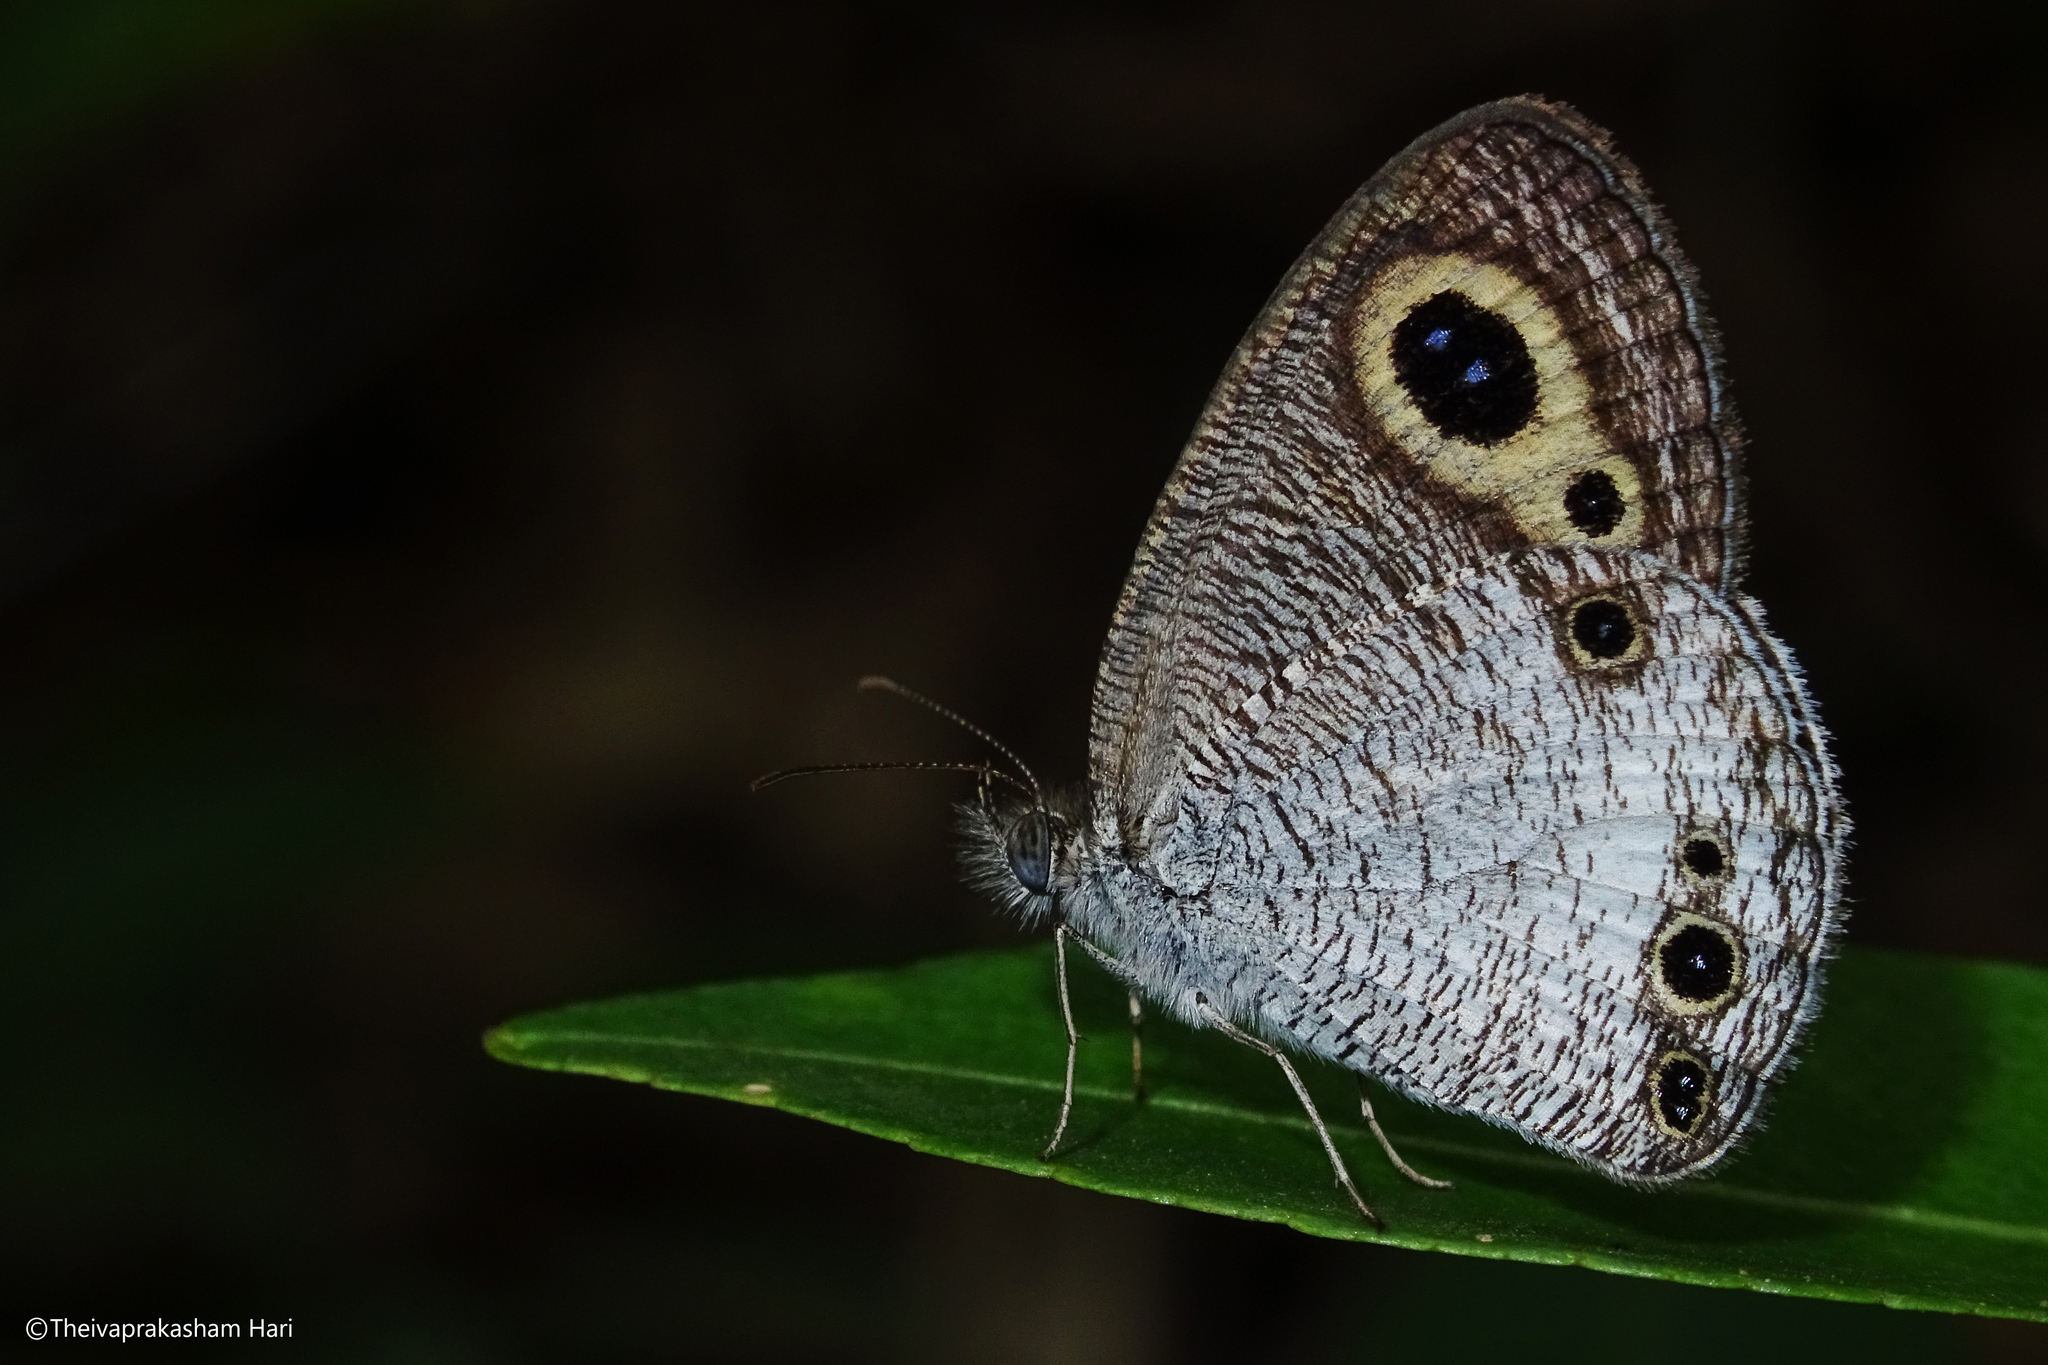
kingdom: Animalia
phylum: Arthropoda
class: Insecta
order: Lepidoptera
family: Nymphalidae
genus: Ypthima
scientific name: Ypthima ceylonica
